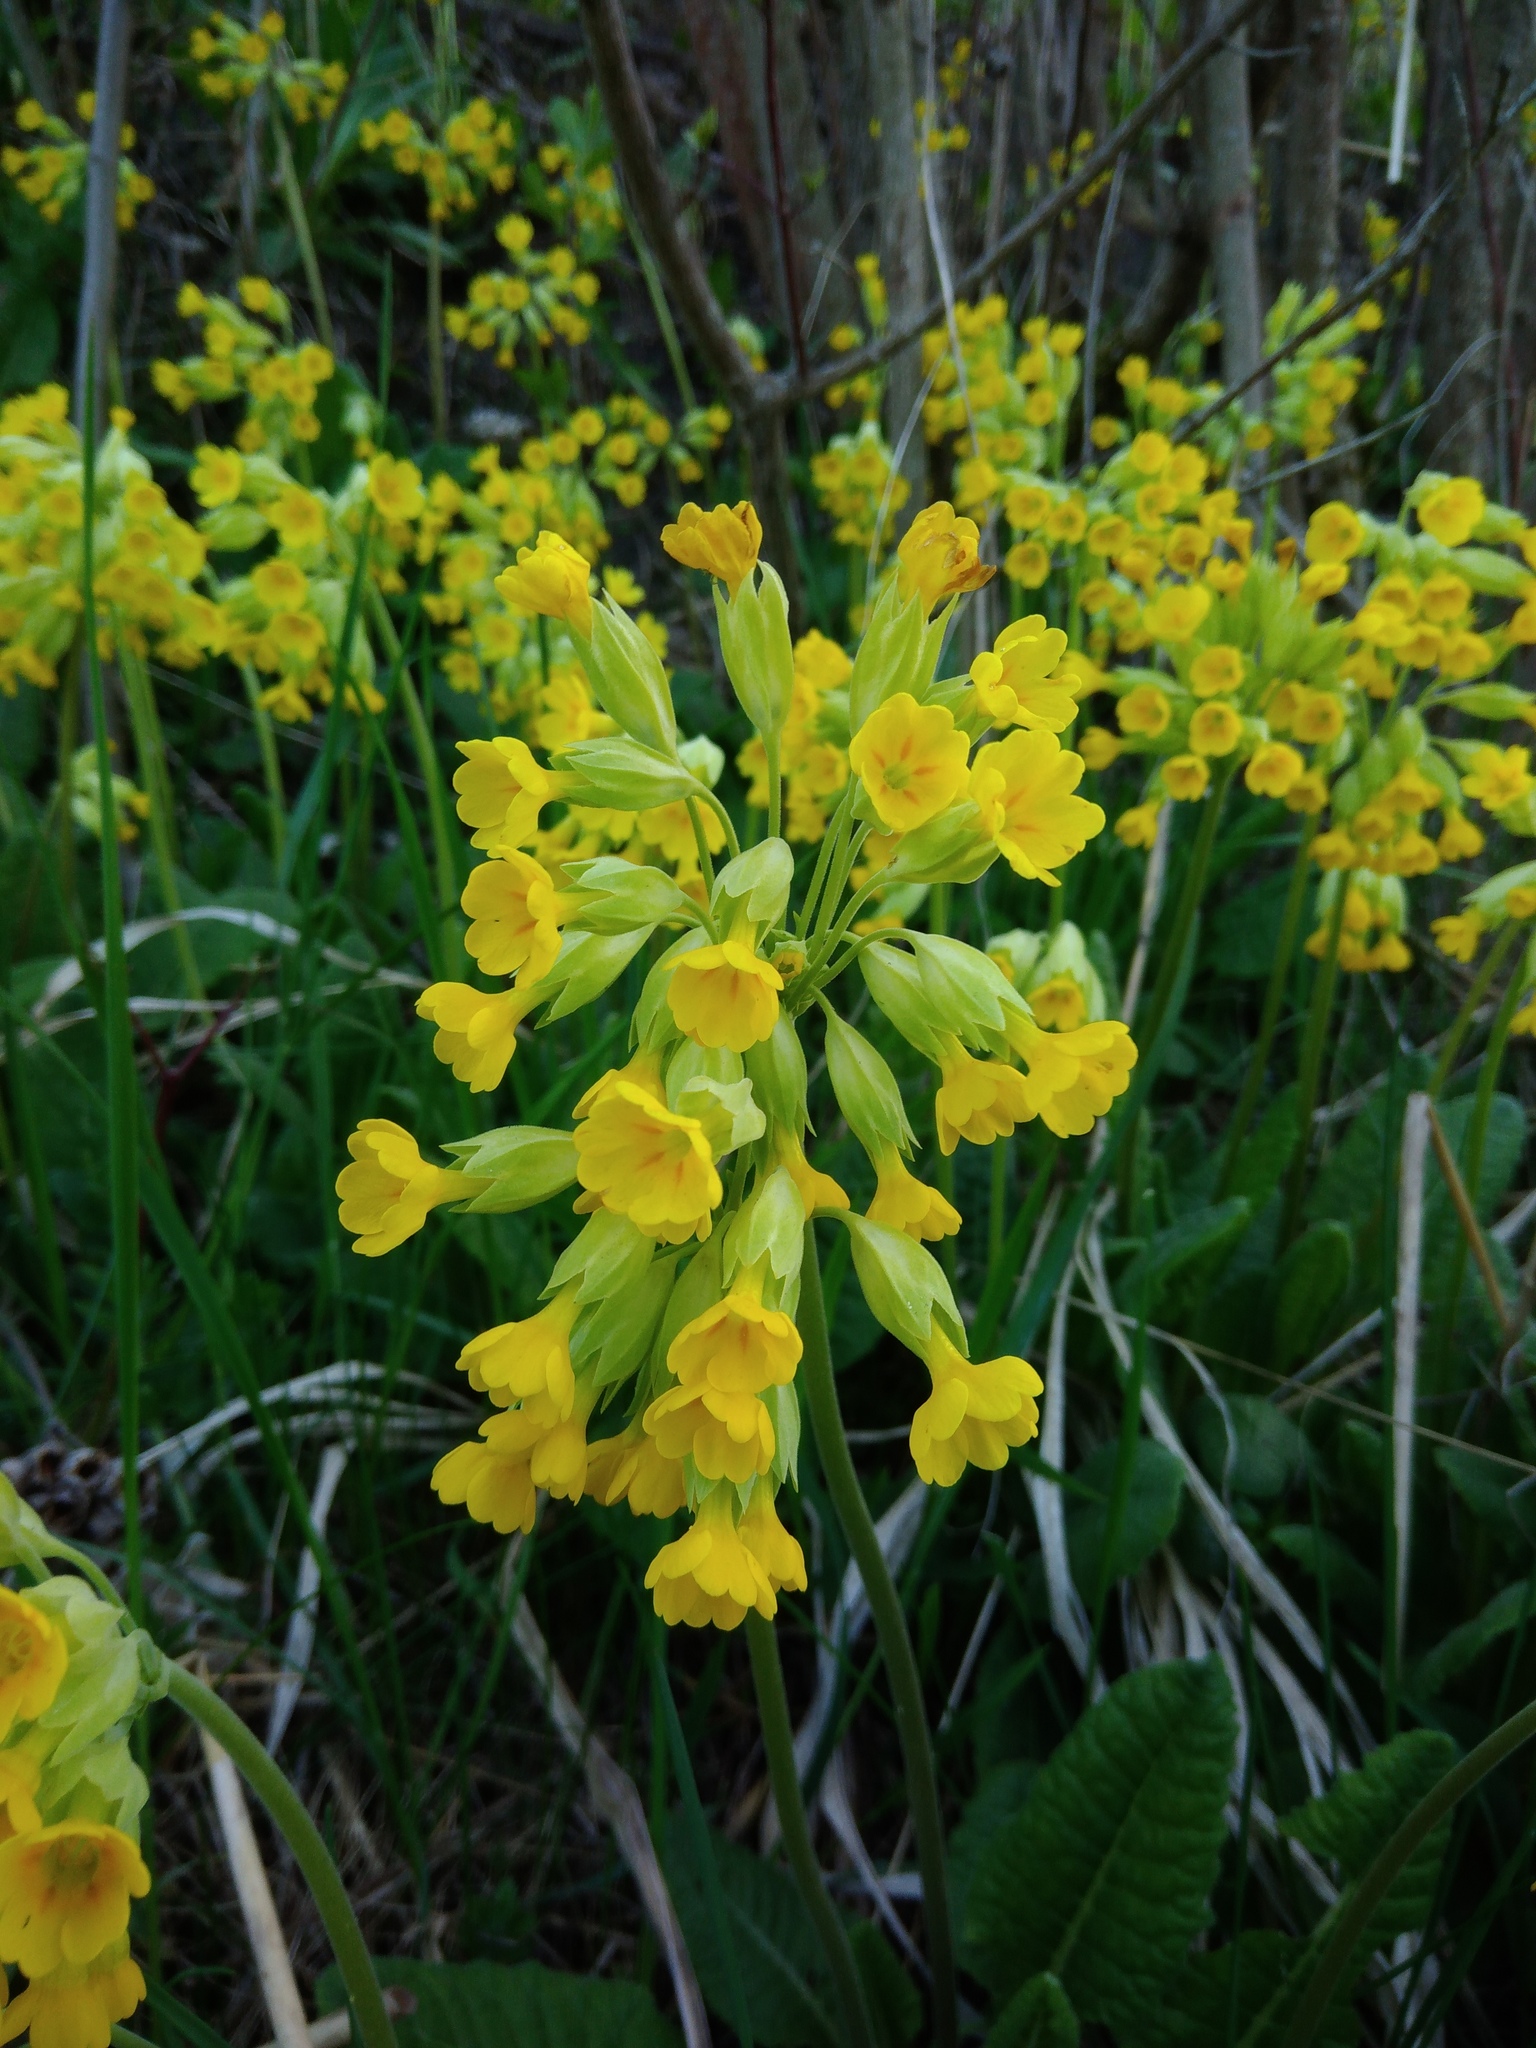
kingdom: Plantae
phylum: Tracheophyta
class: Magnoliopsida
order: Ericales
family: Primulaceae
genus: Primula
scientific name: Primula veris
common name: Cowslip
